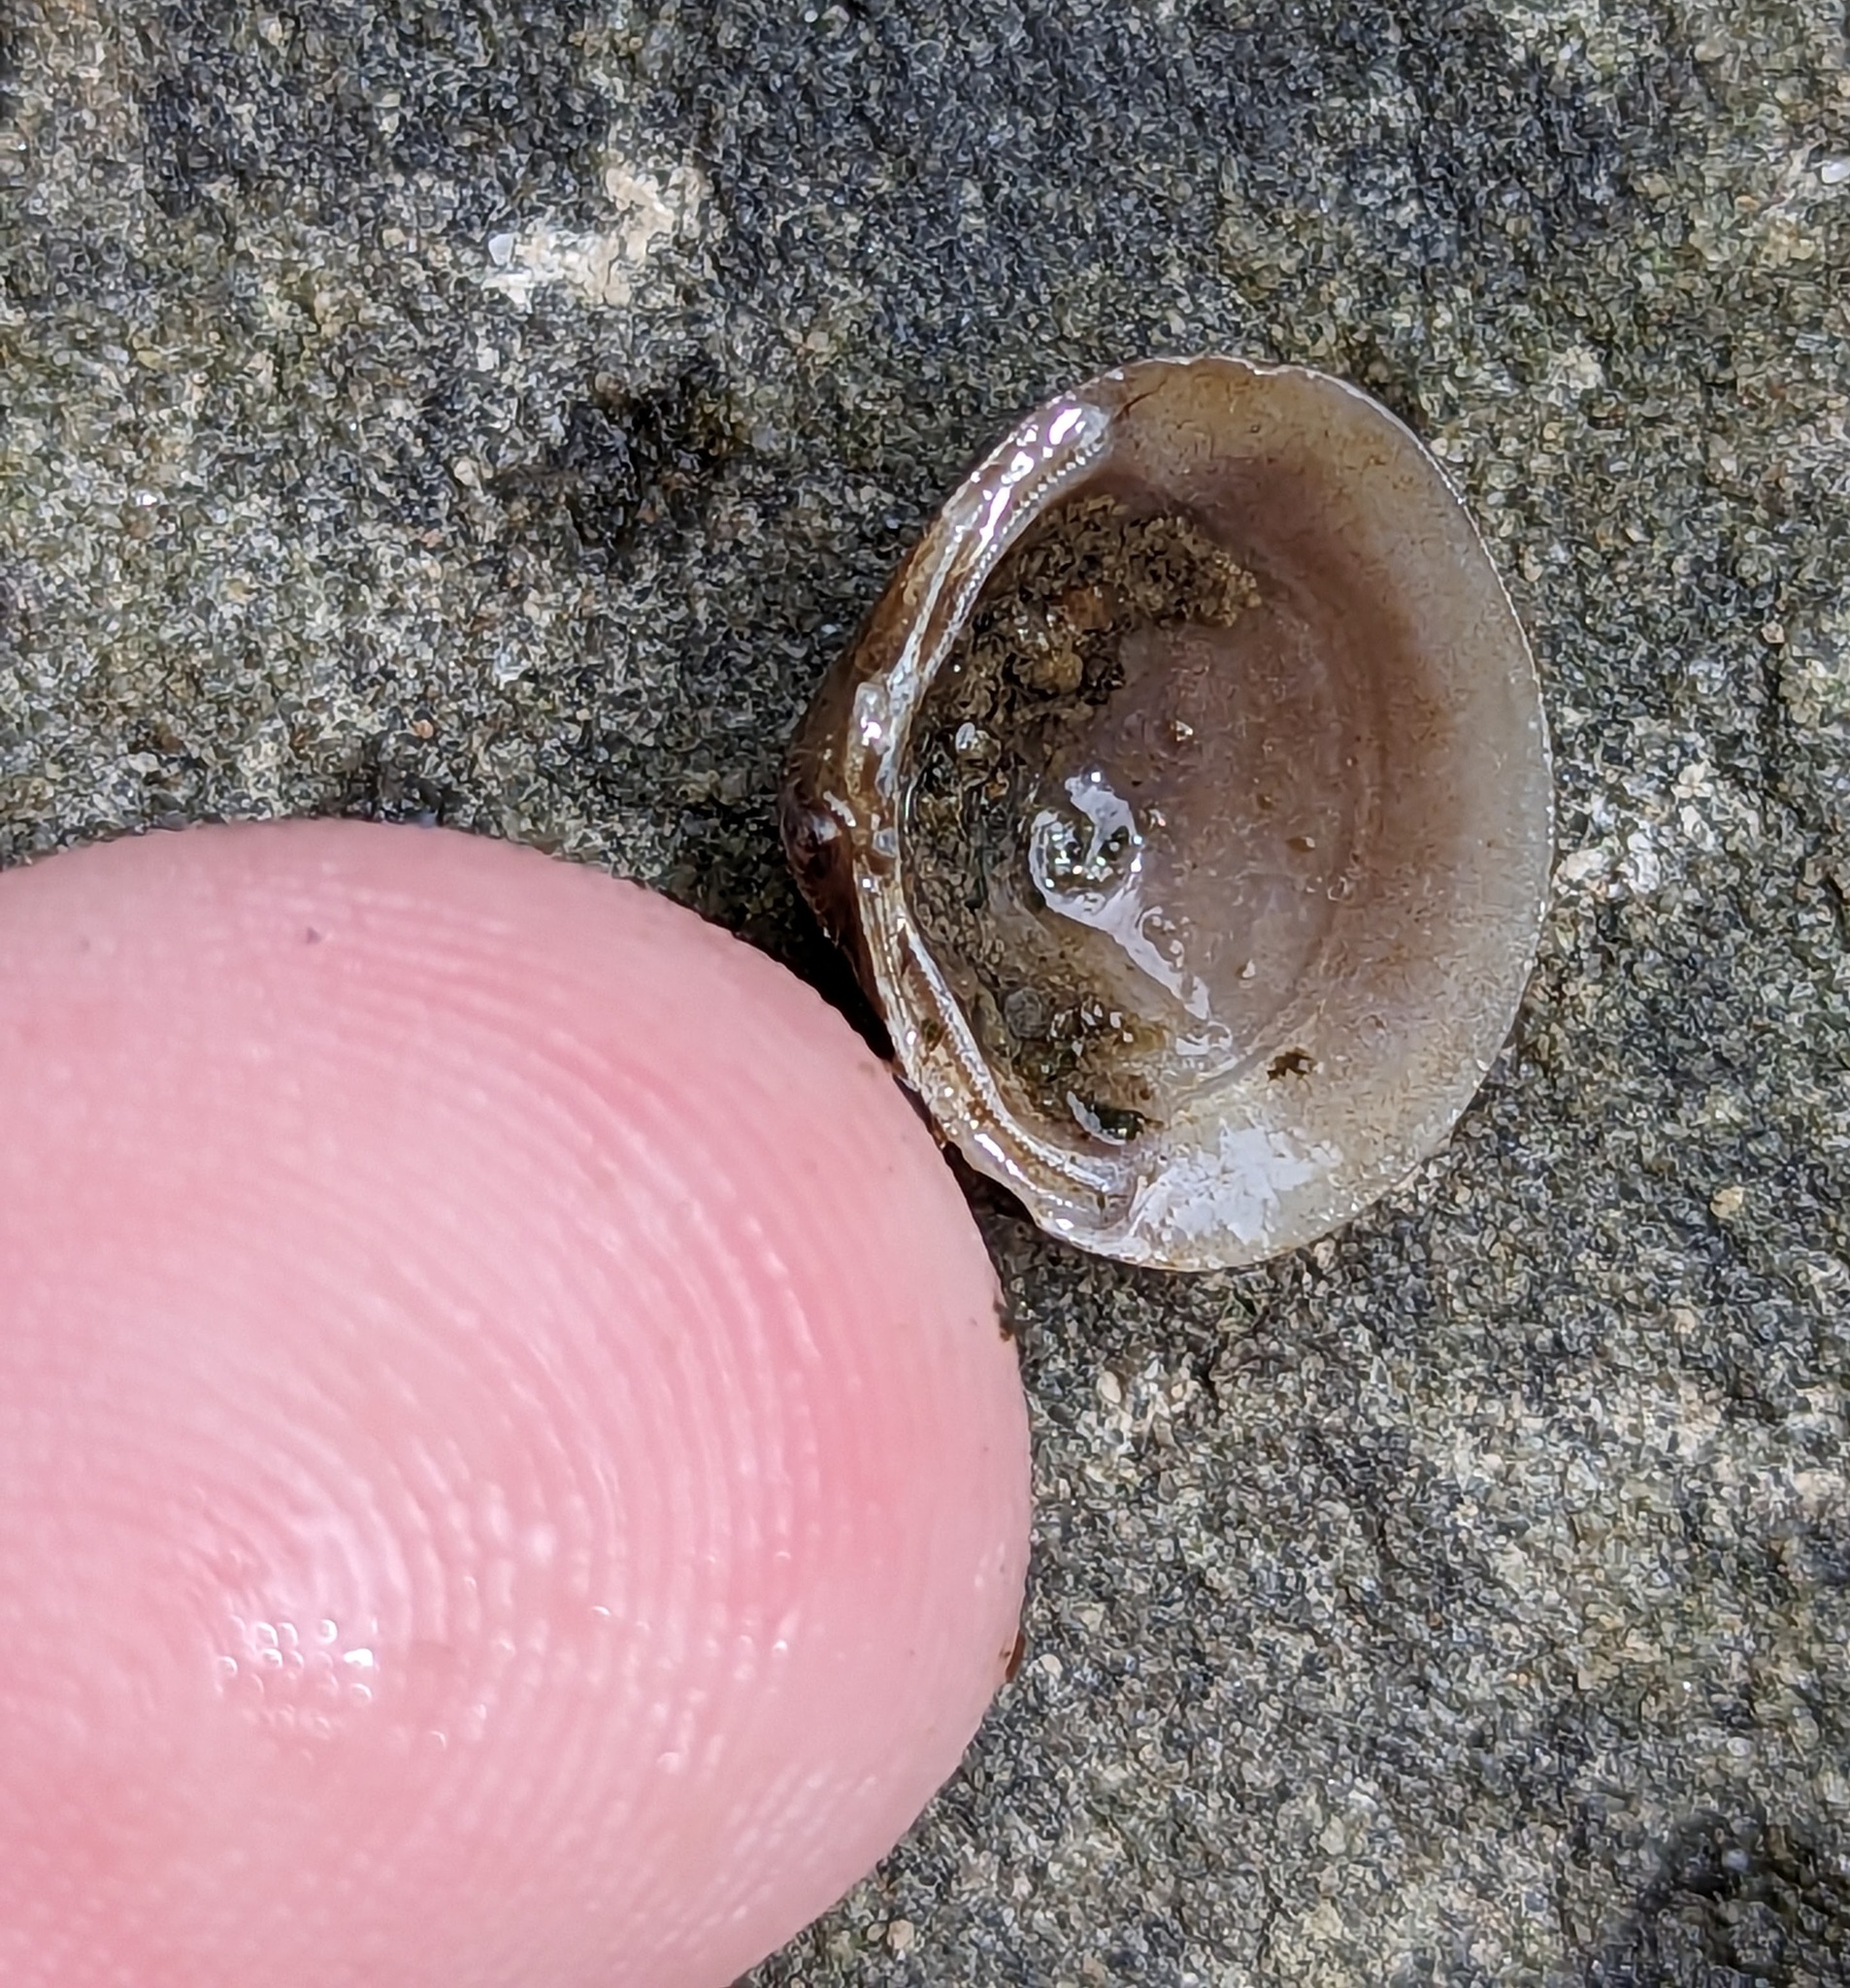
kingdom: Animalia
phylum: Mollusca
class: Bivalvia
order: Venerida
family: Cyrenidae
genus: Corbicula
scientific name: Corbicula fluminea
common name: Asian clam
